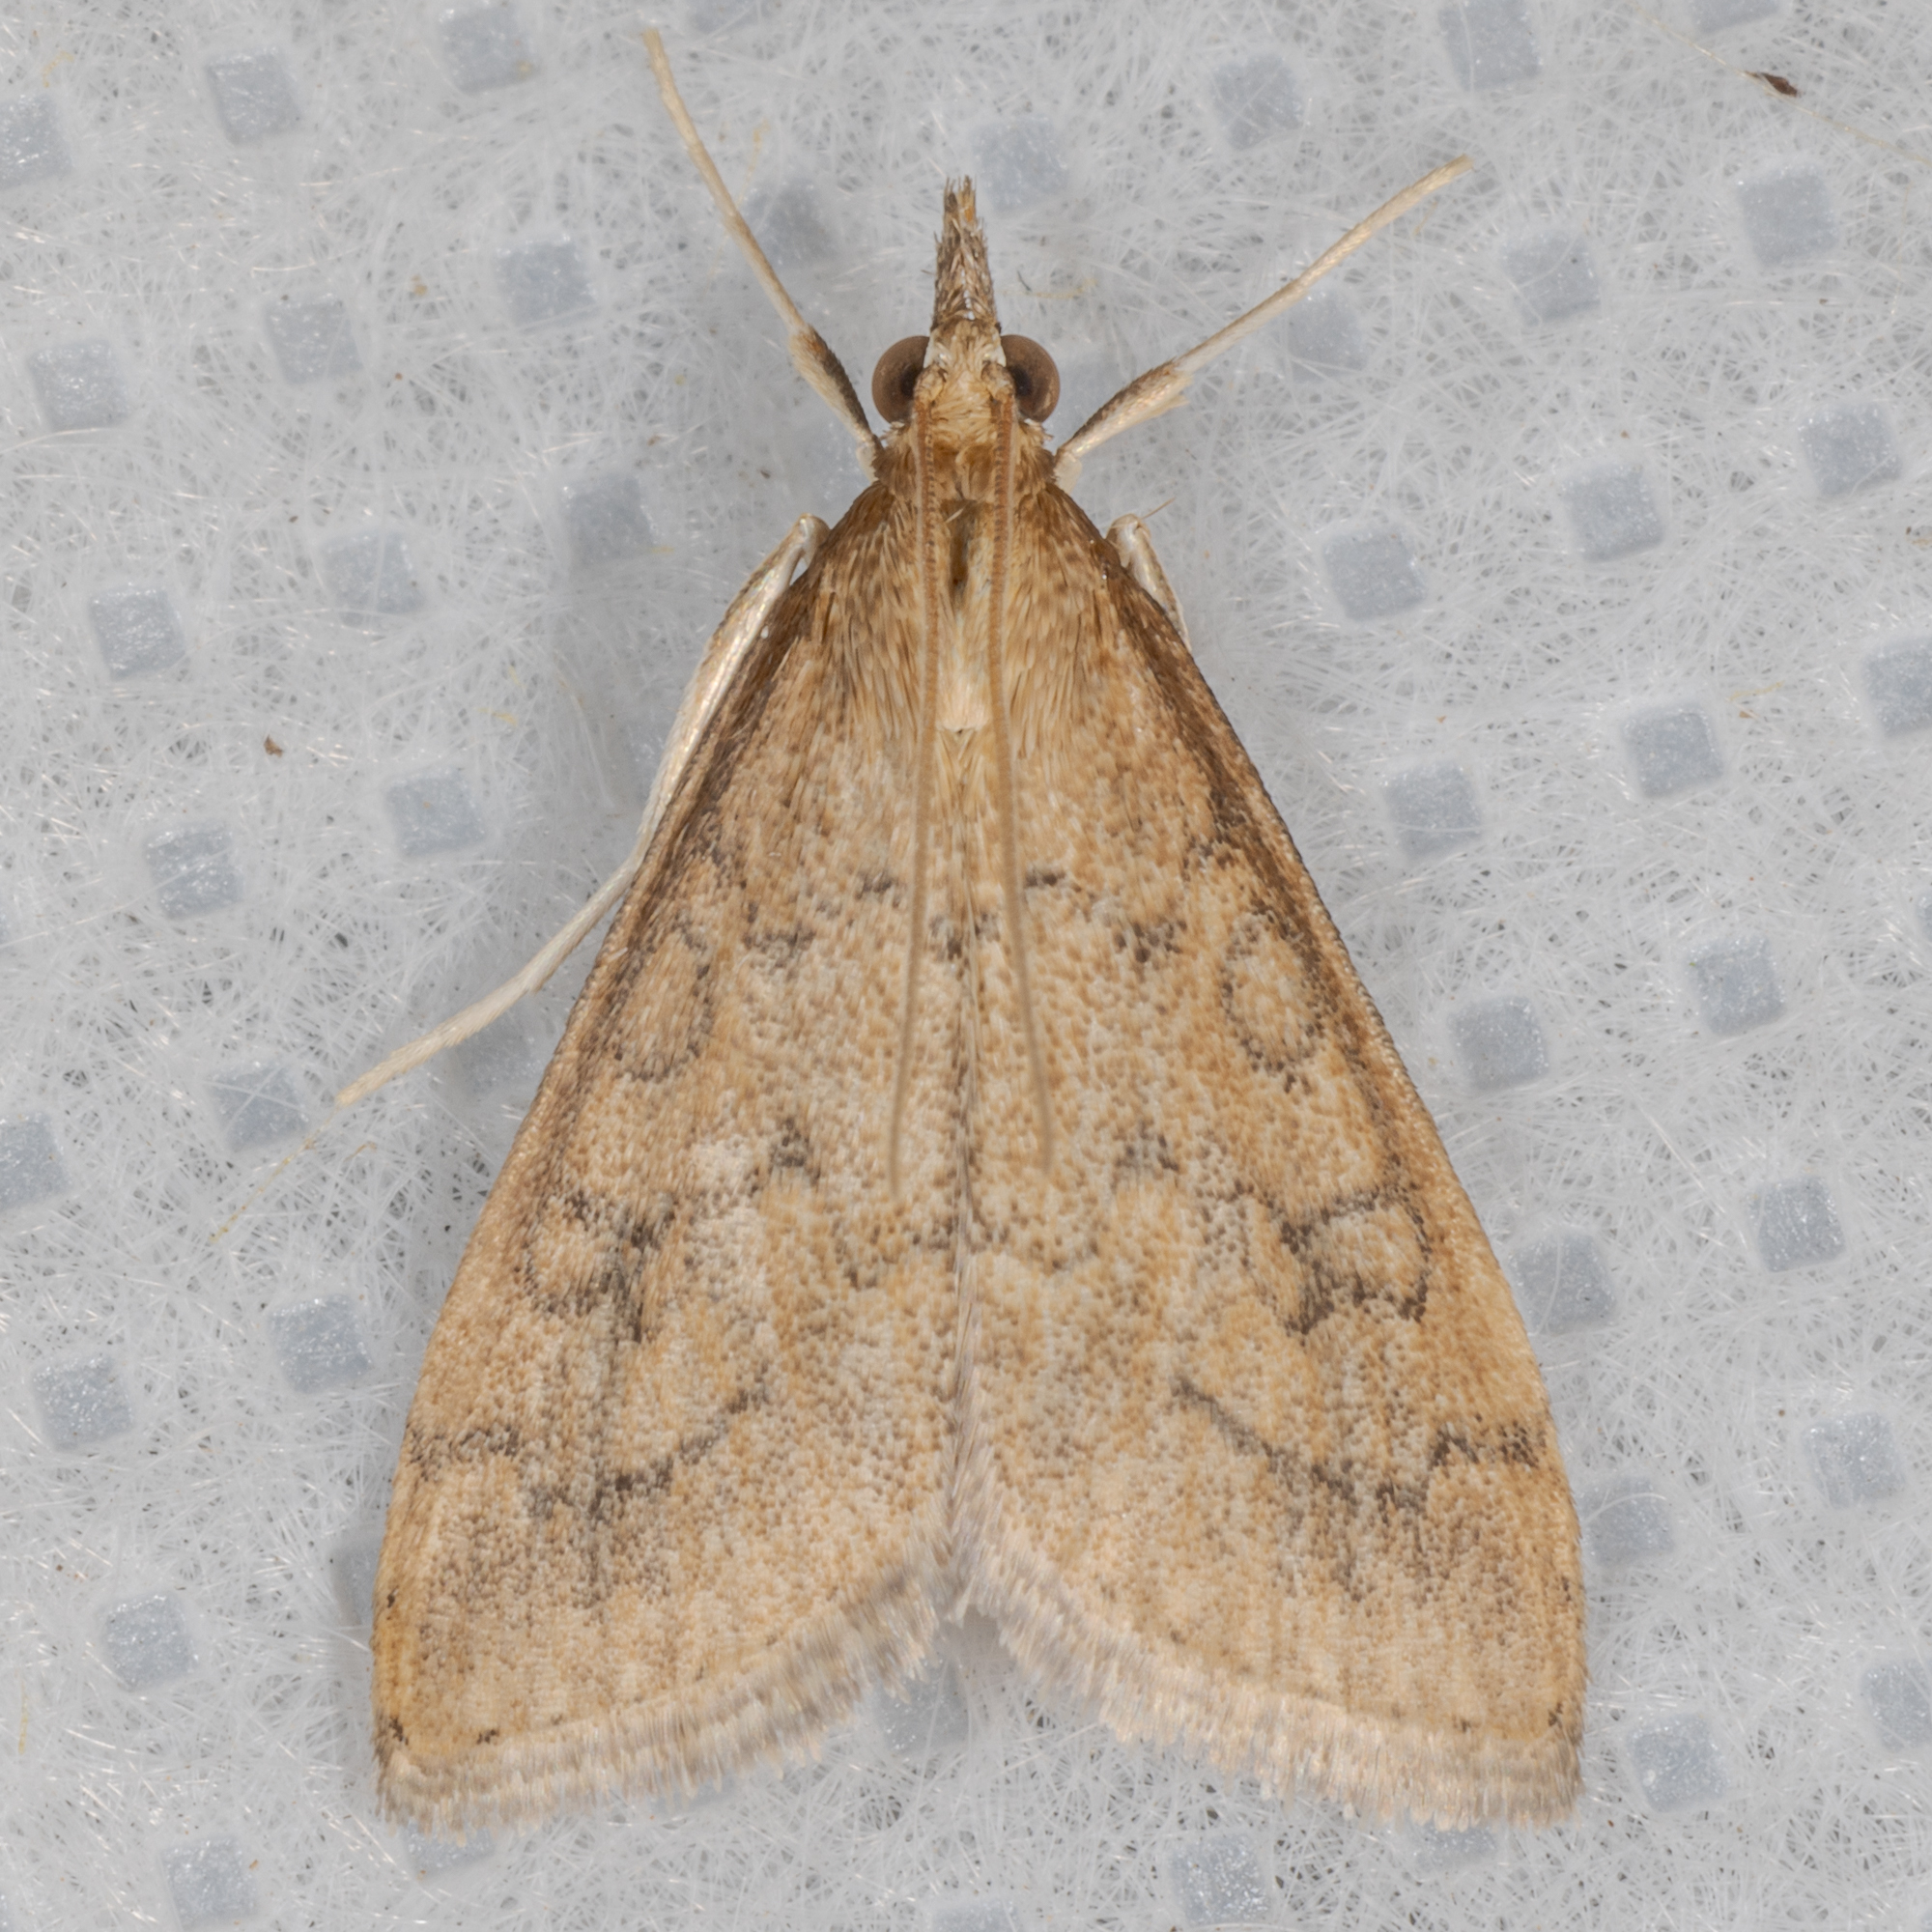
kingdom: Animalia
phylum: Arthropoda
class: Insecta
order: Lepidoptera
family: Crambidae
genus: Udea
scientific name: Udea rubigalis
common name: Celery leaftier moth
